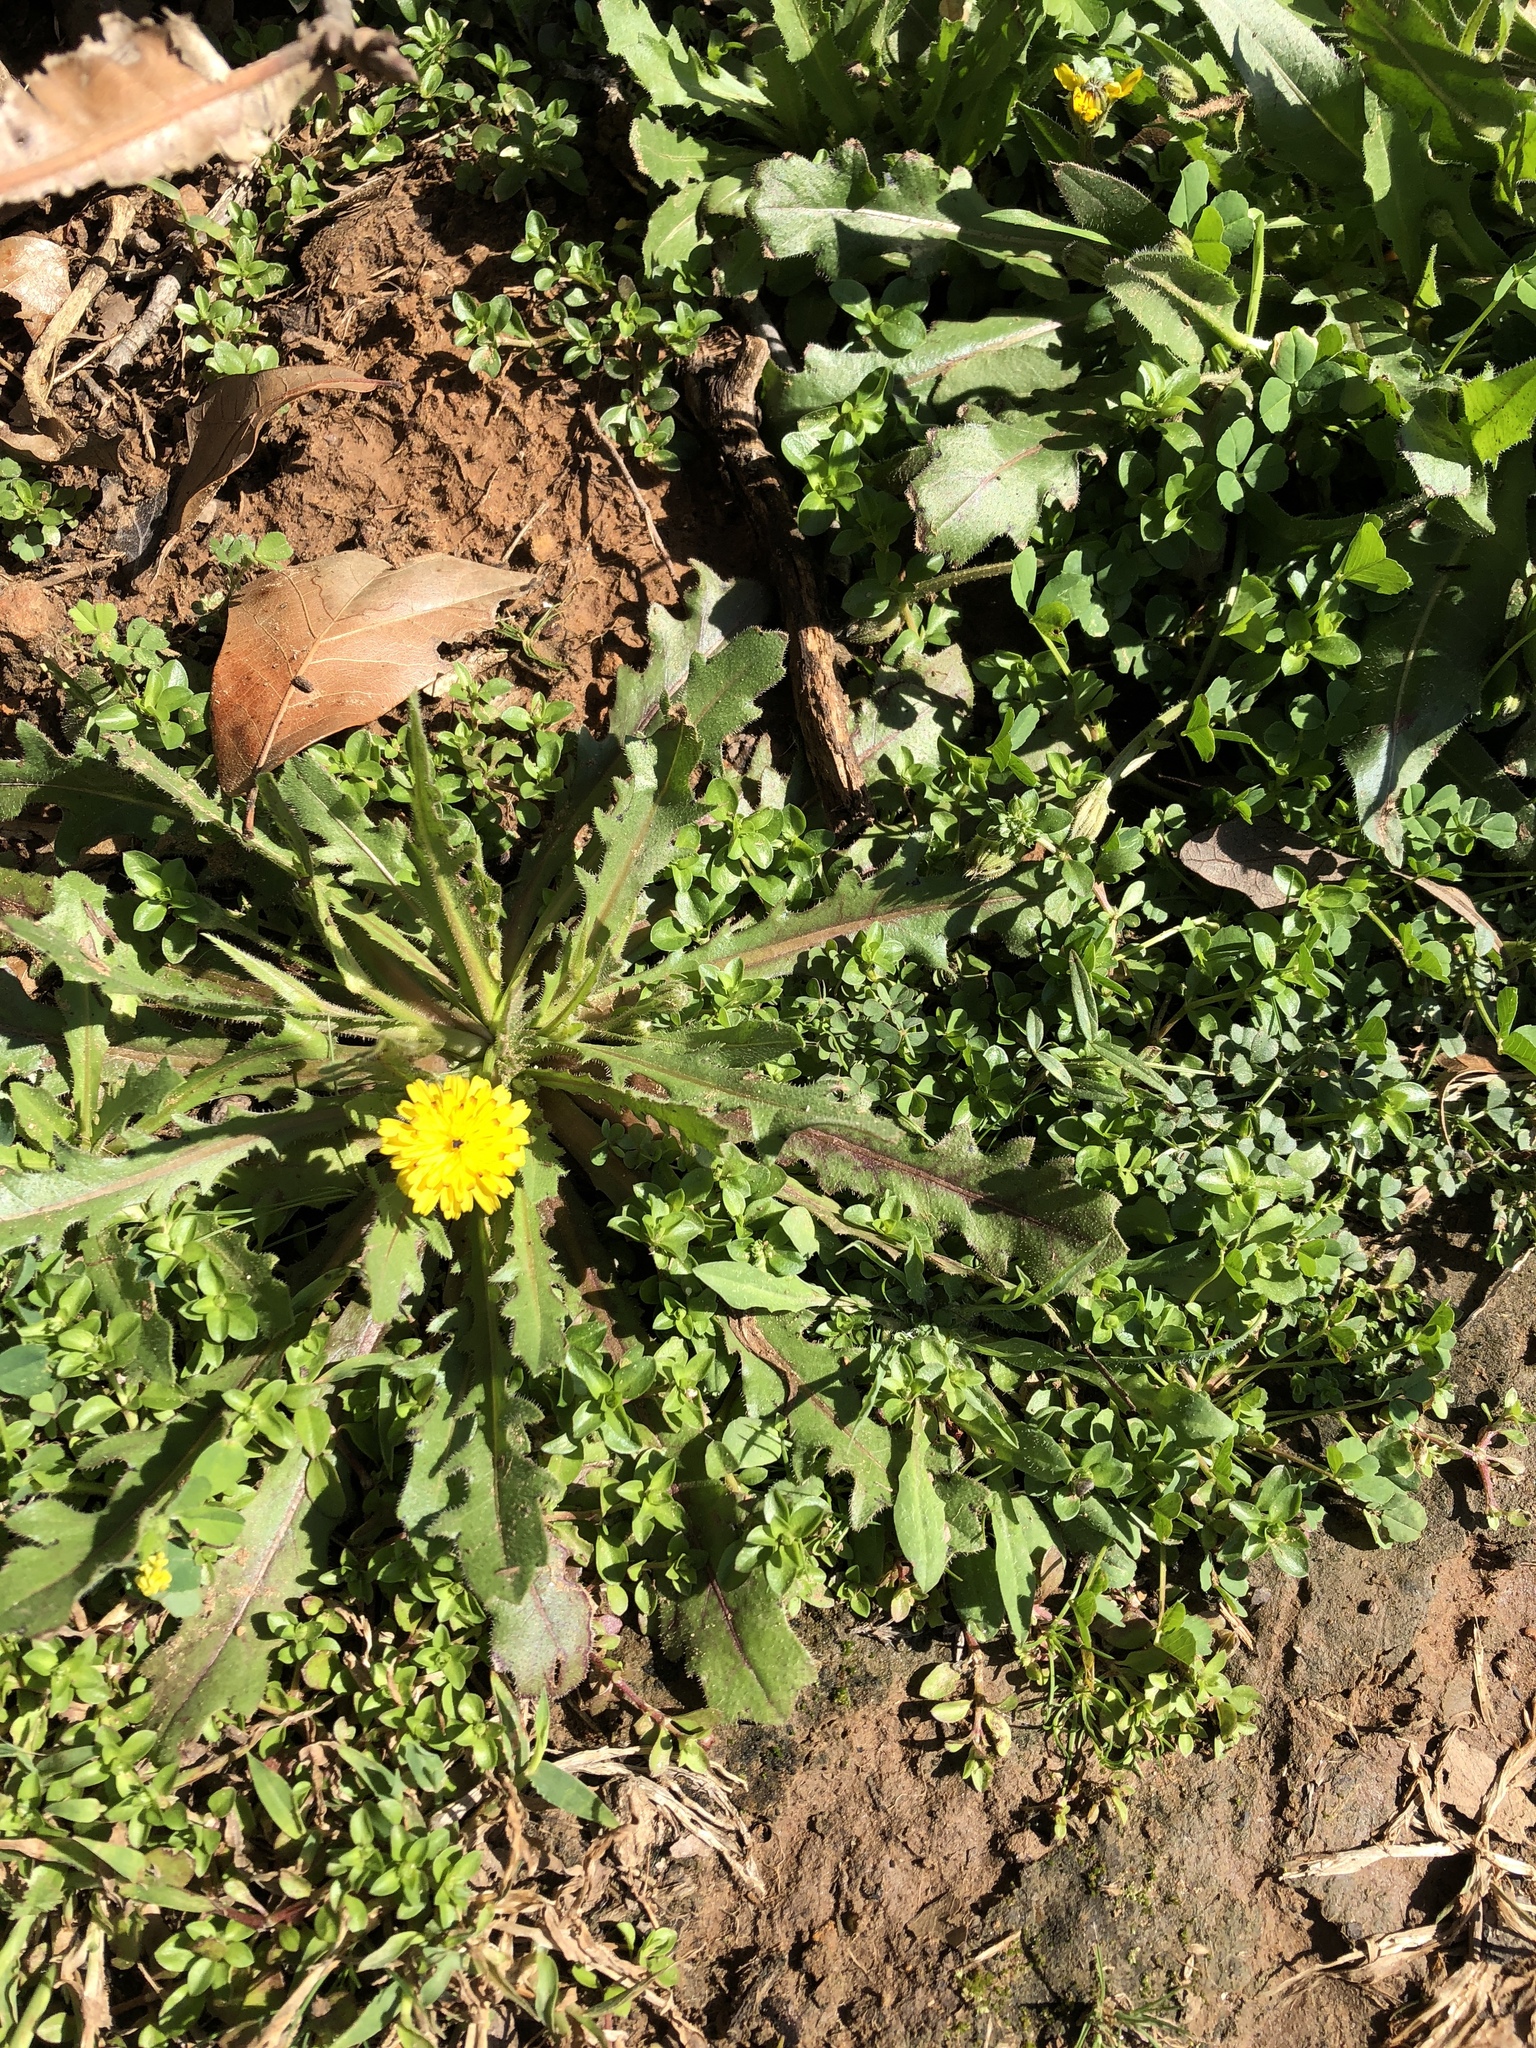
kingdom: Plantae
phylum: Tracheophyta
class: Magnoliopsida
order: Asterales
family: Asteraceae
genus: Hedypnois
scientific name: Hedypnois rhagadioloides
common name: Cretan weed
